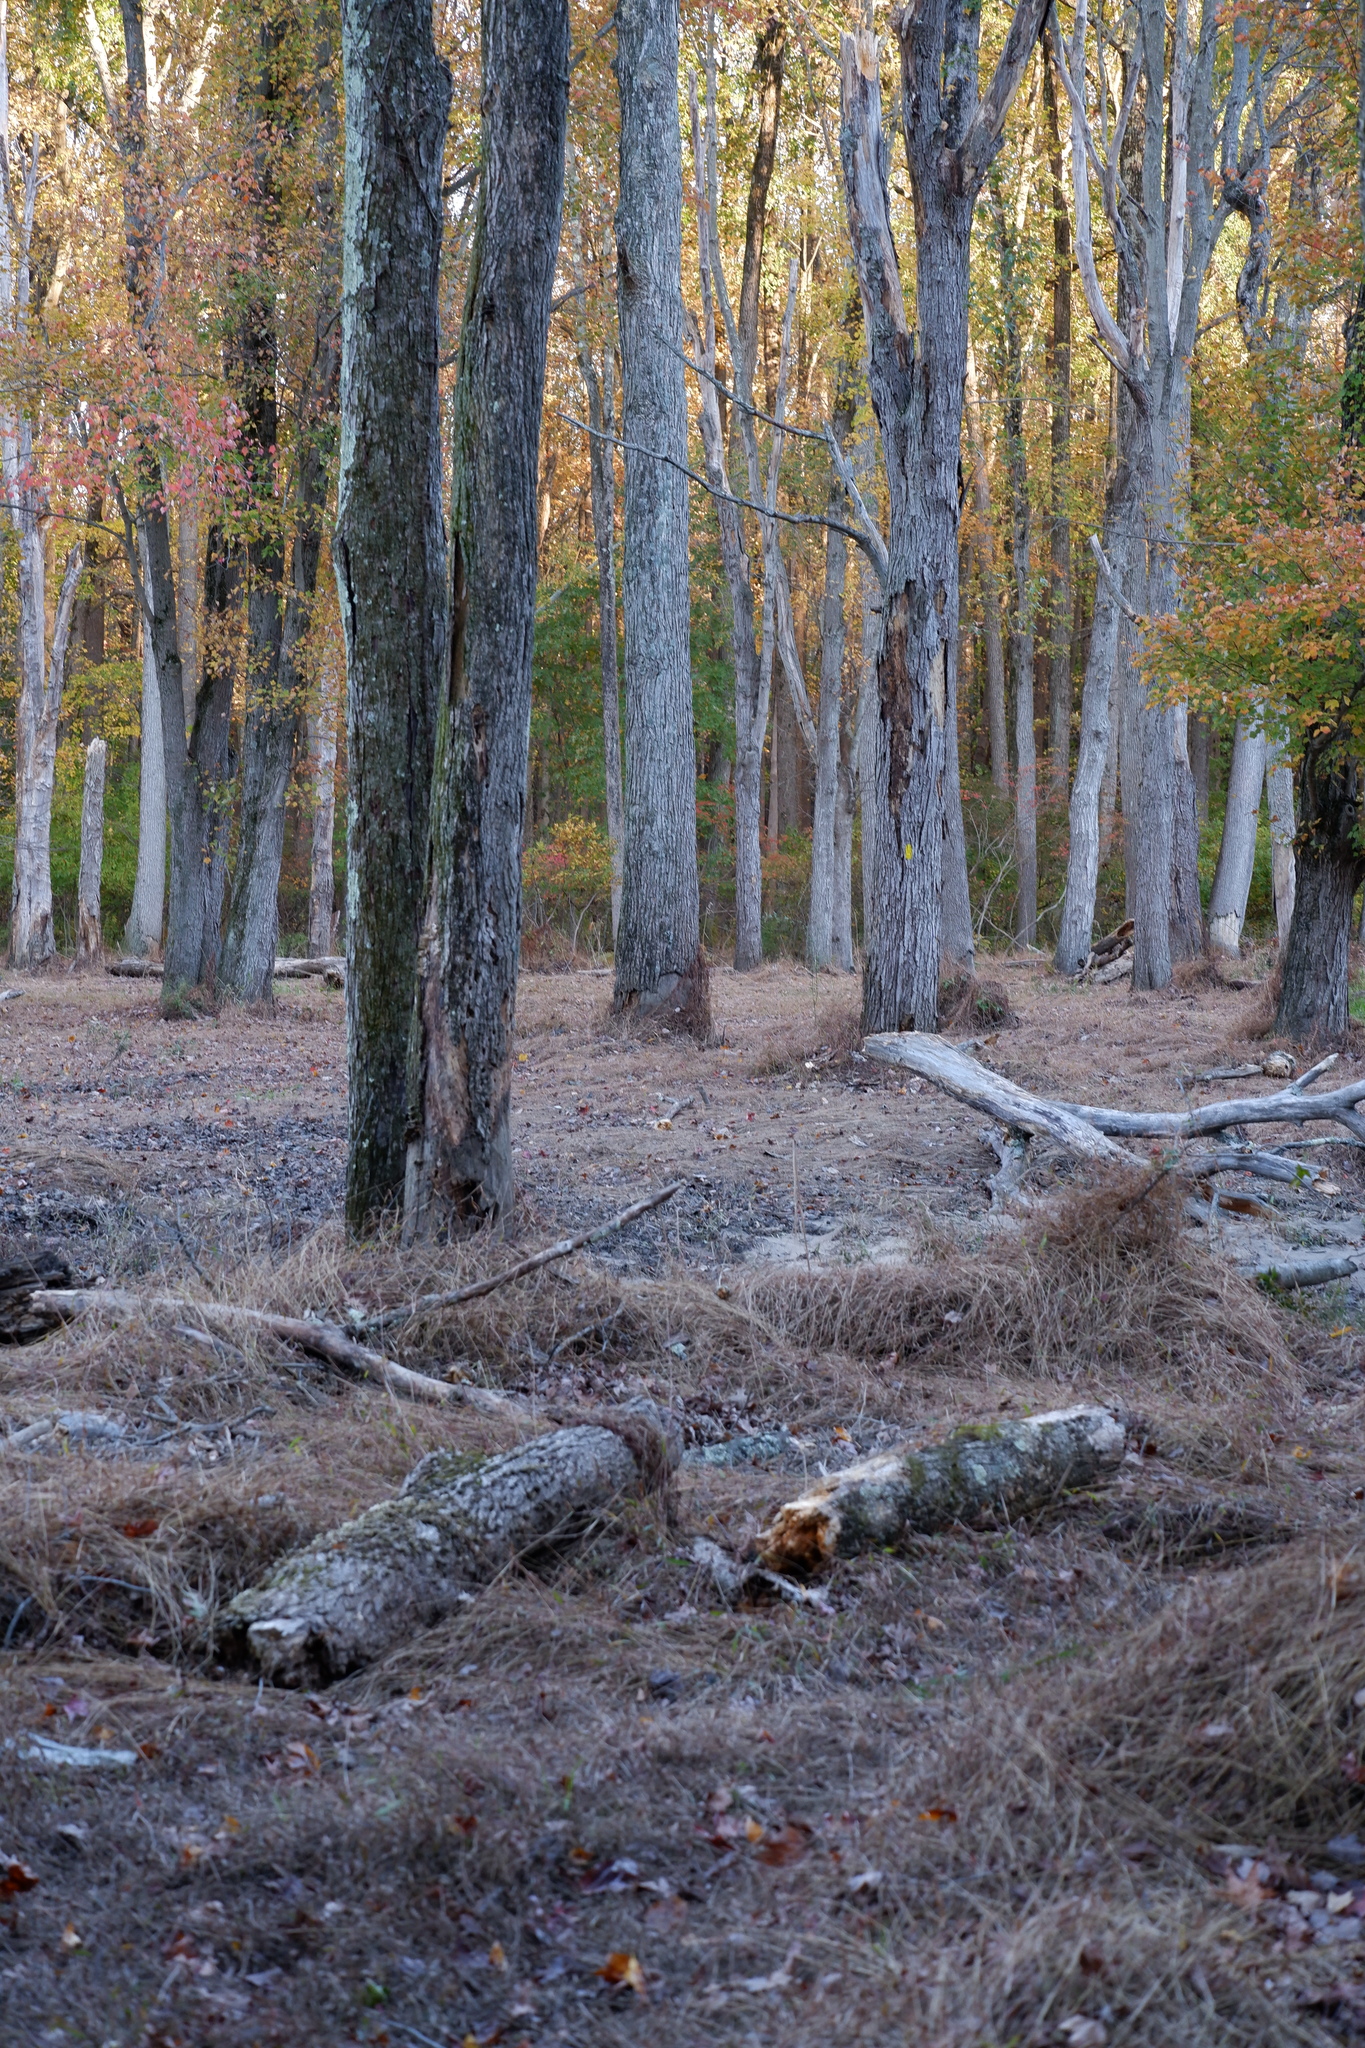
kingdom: Plantae
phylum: Tracheophyta
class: Liliopsida
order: Poales
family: Poaceae
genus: Microstegium
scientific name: Microstegium vimineum
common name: Japanese stiltgrass
